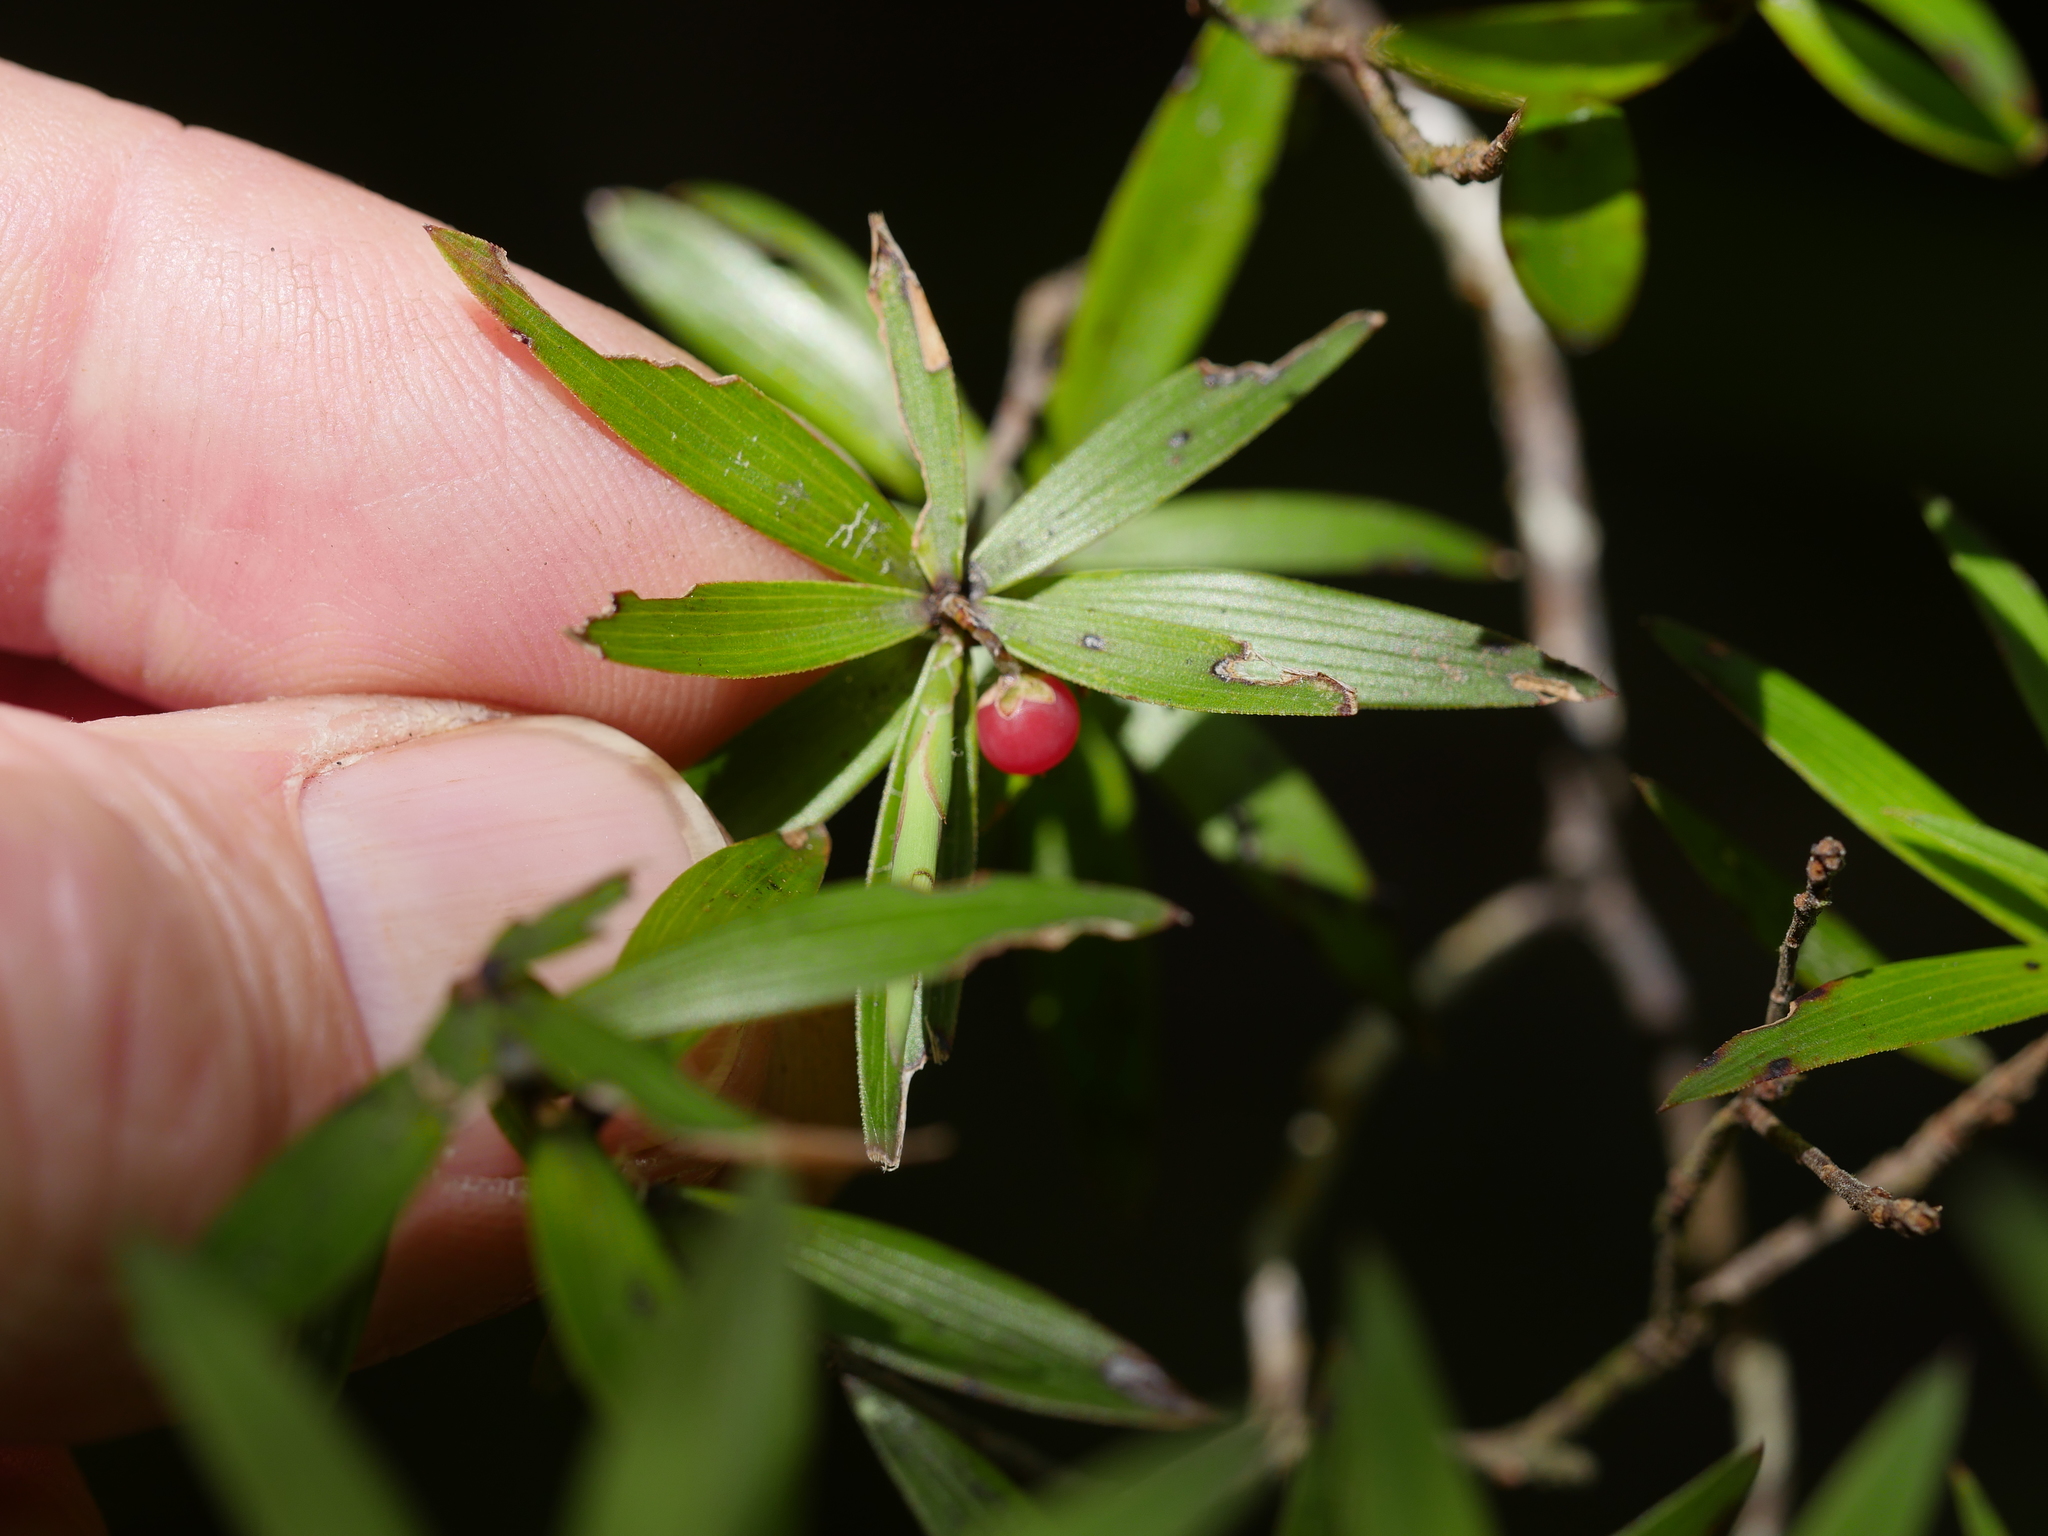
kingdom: Plantae
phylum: Tracheophyta
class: Magnoliopsida
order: Ericales
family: Ericaceae
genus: Leucopogon
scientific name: Leucopogon fasciculatus
